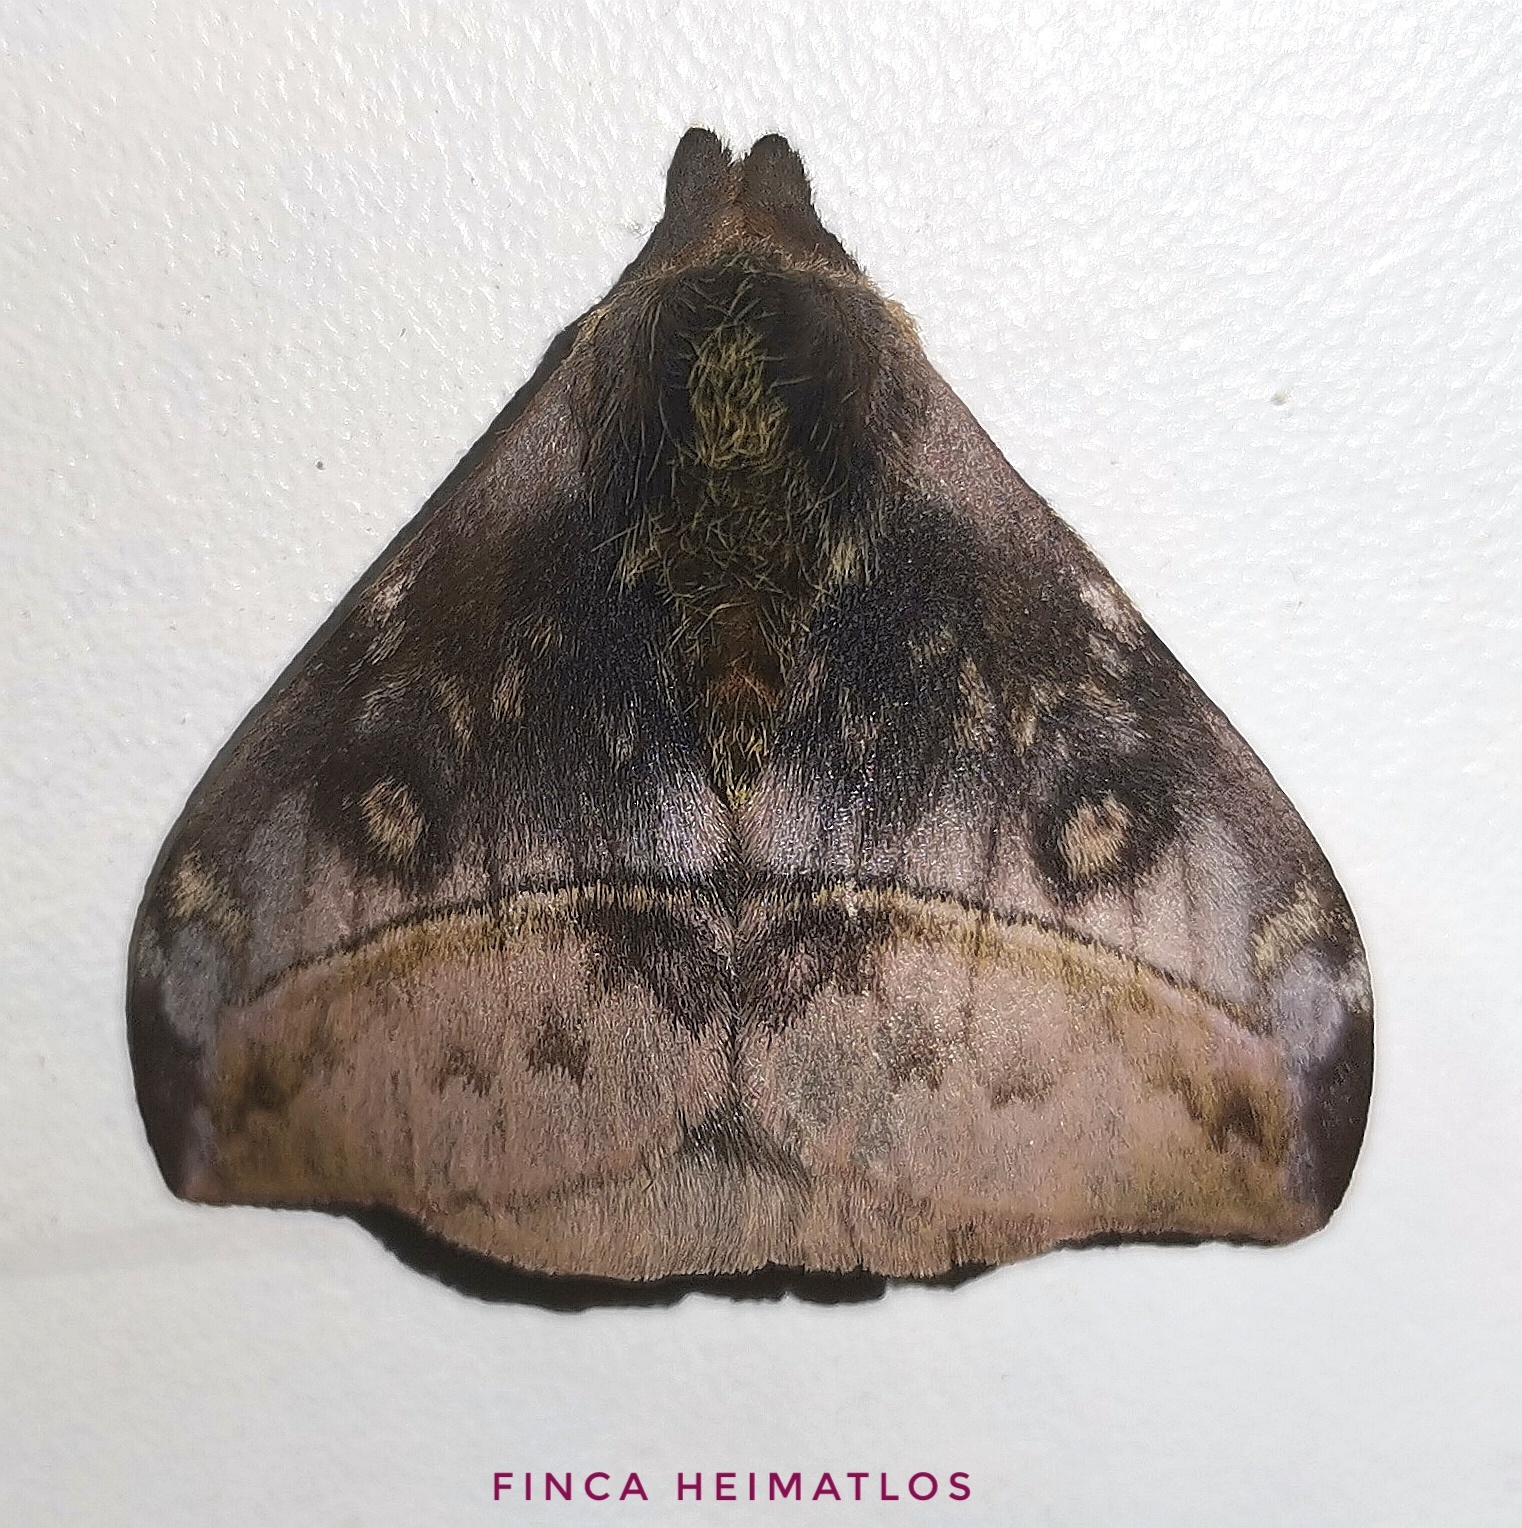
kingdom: Animalia
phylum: Arthropoda
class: Insecta
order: Lepidoptera
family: Saturniidae
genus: Hylesia
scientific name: Hylesia annulata
